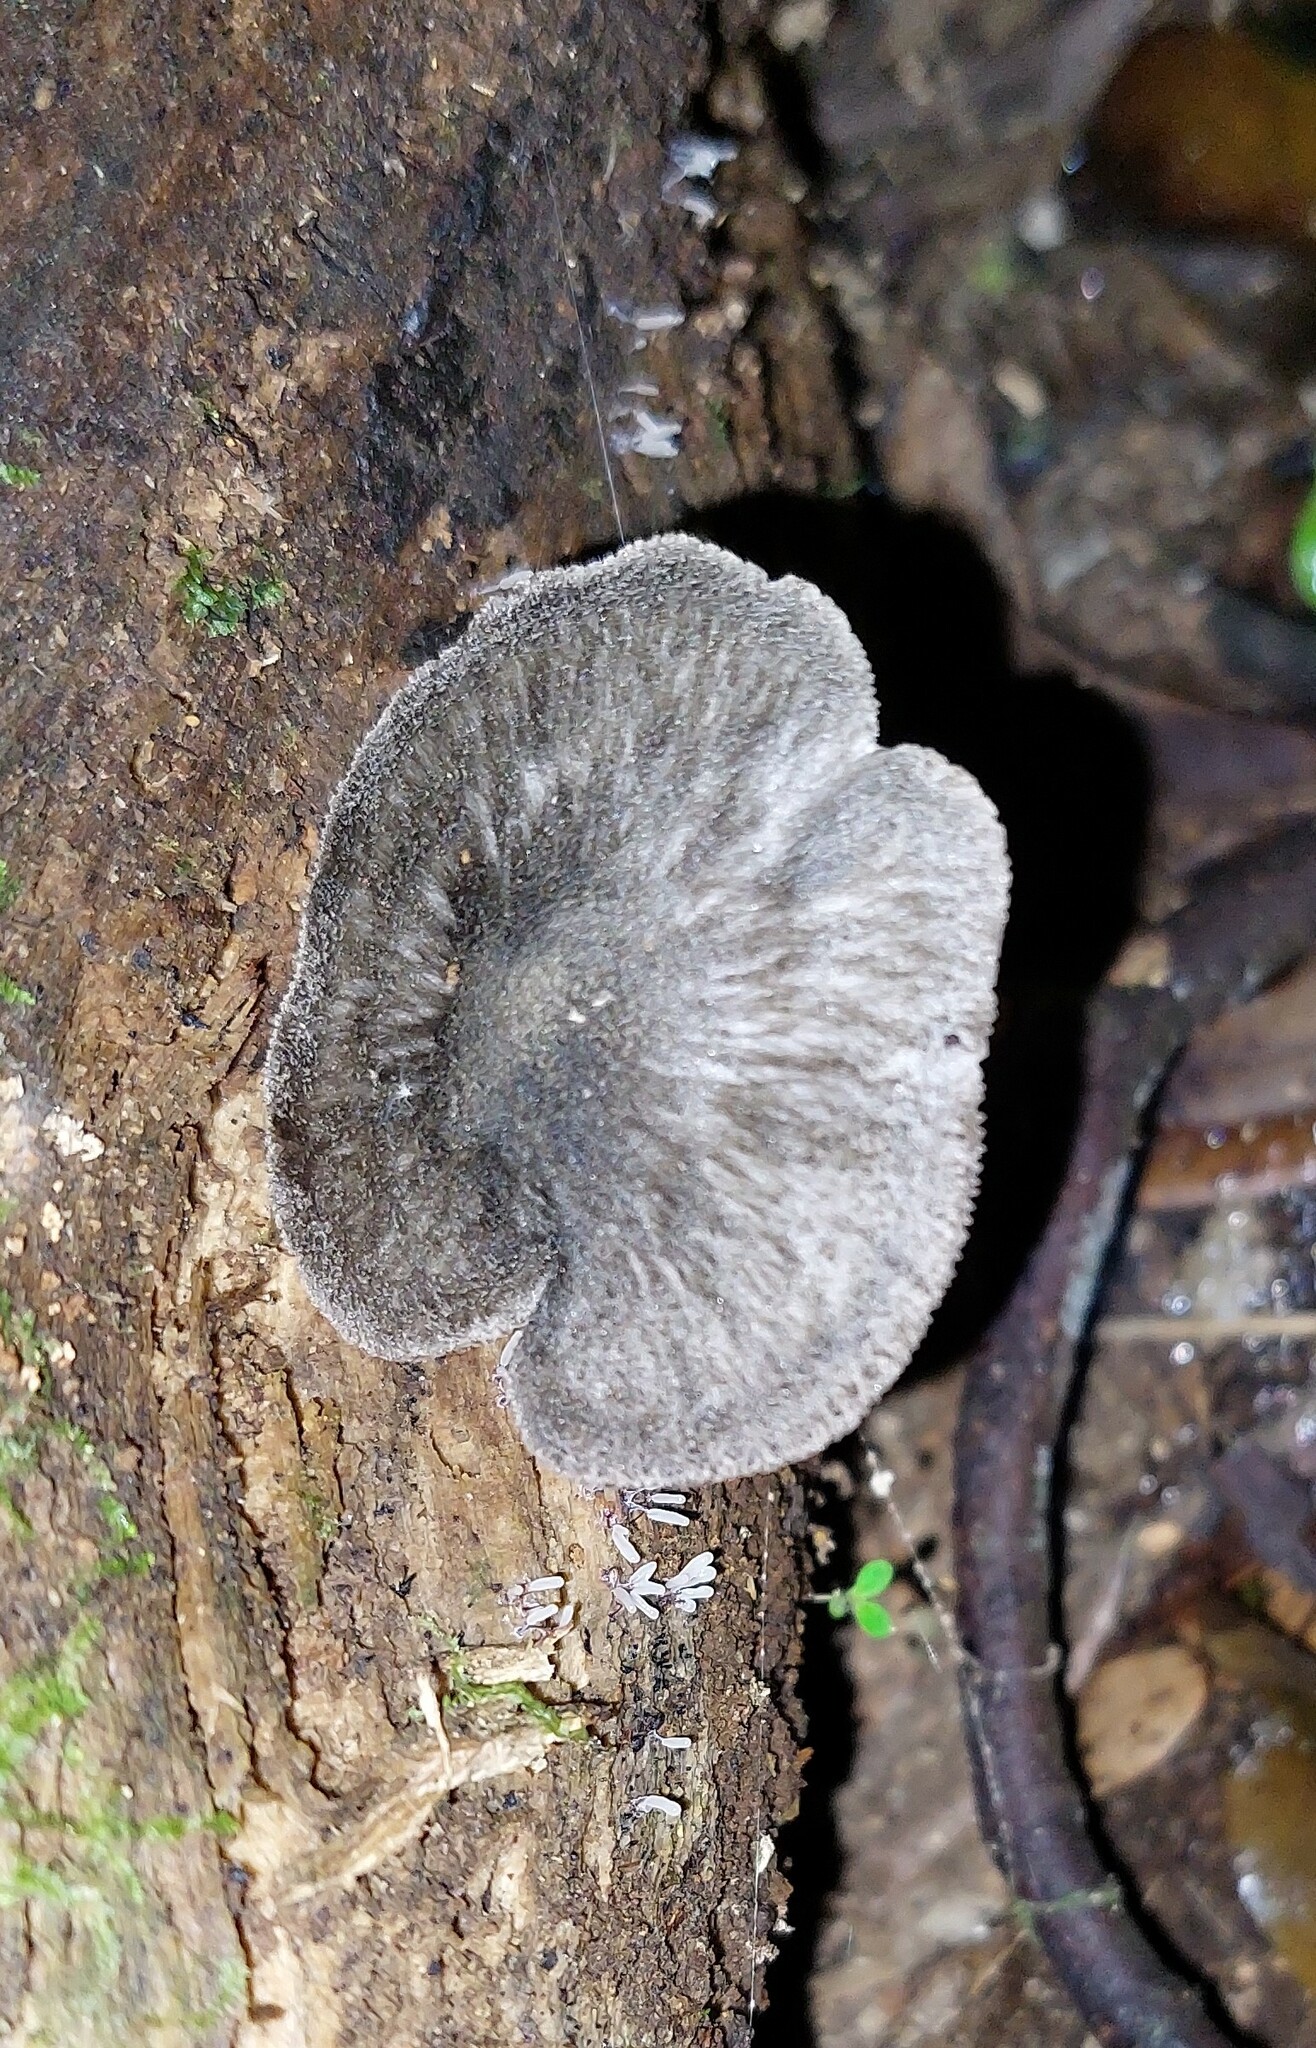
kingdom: Fungi
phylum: Basidiomycota
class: Agaricomycetes
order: Agaricales
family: Pluteaceae
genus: Pluteus
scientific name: Pluteus velutinornatus
